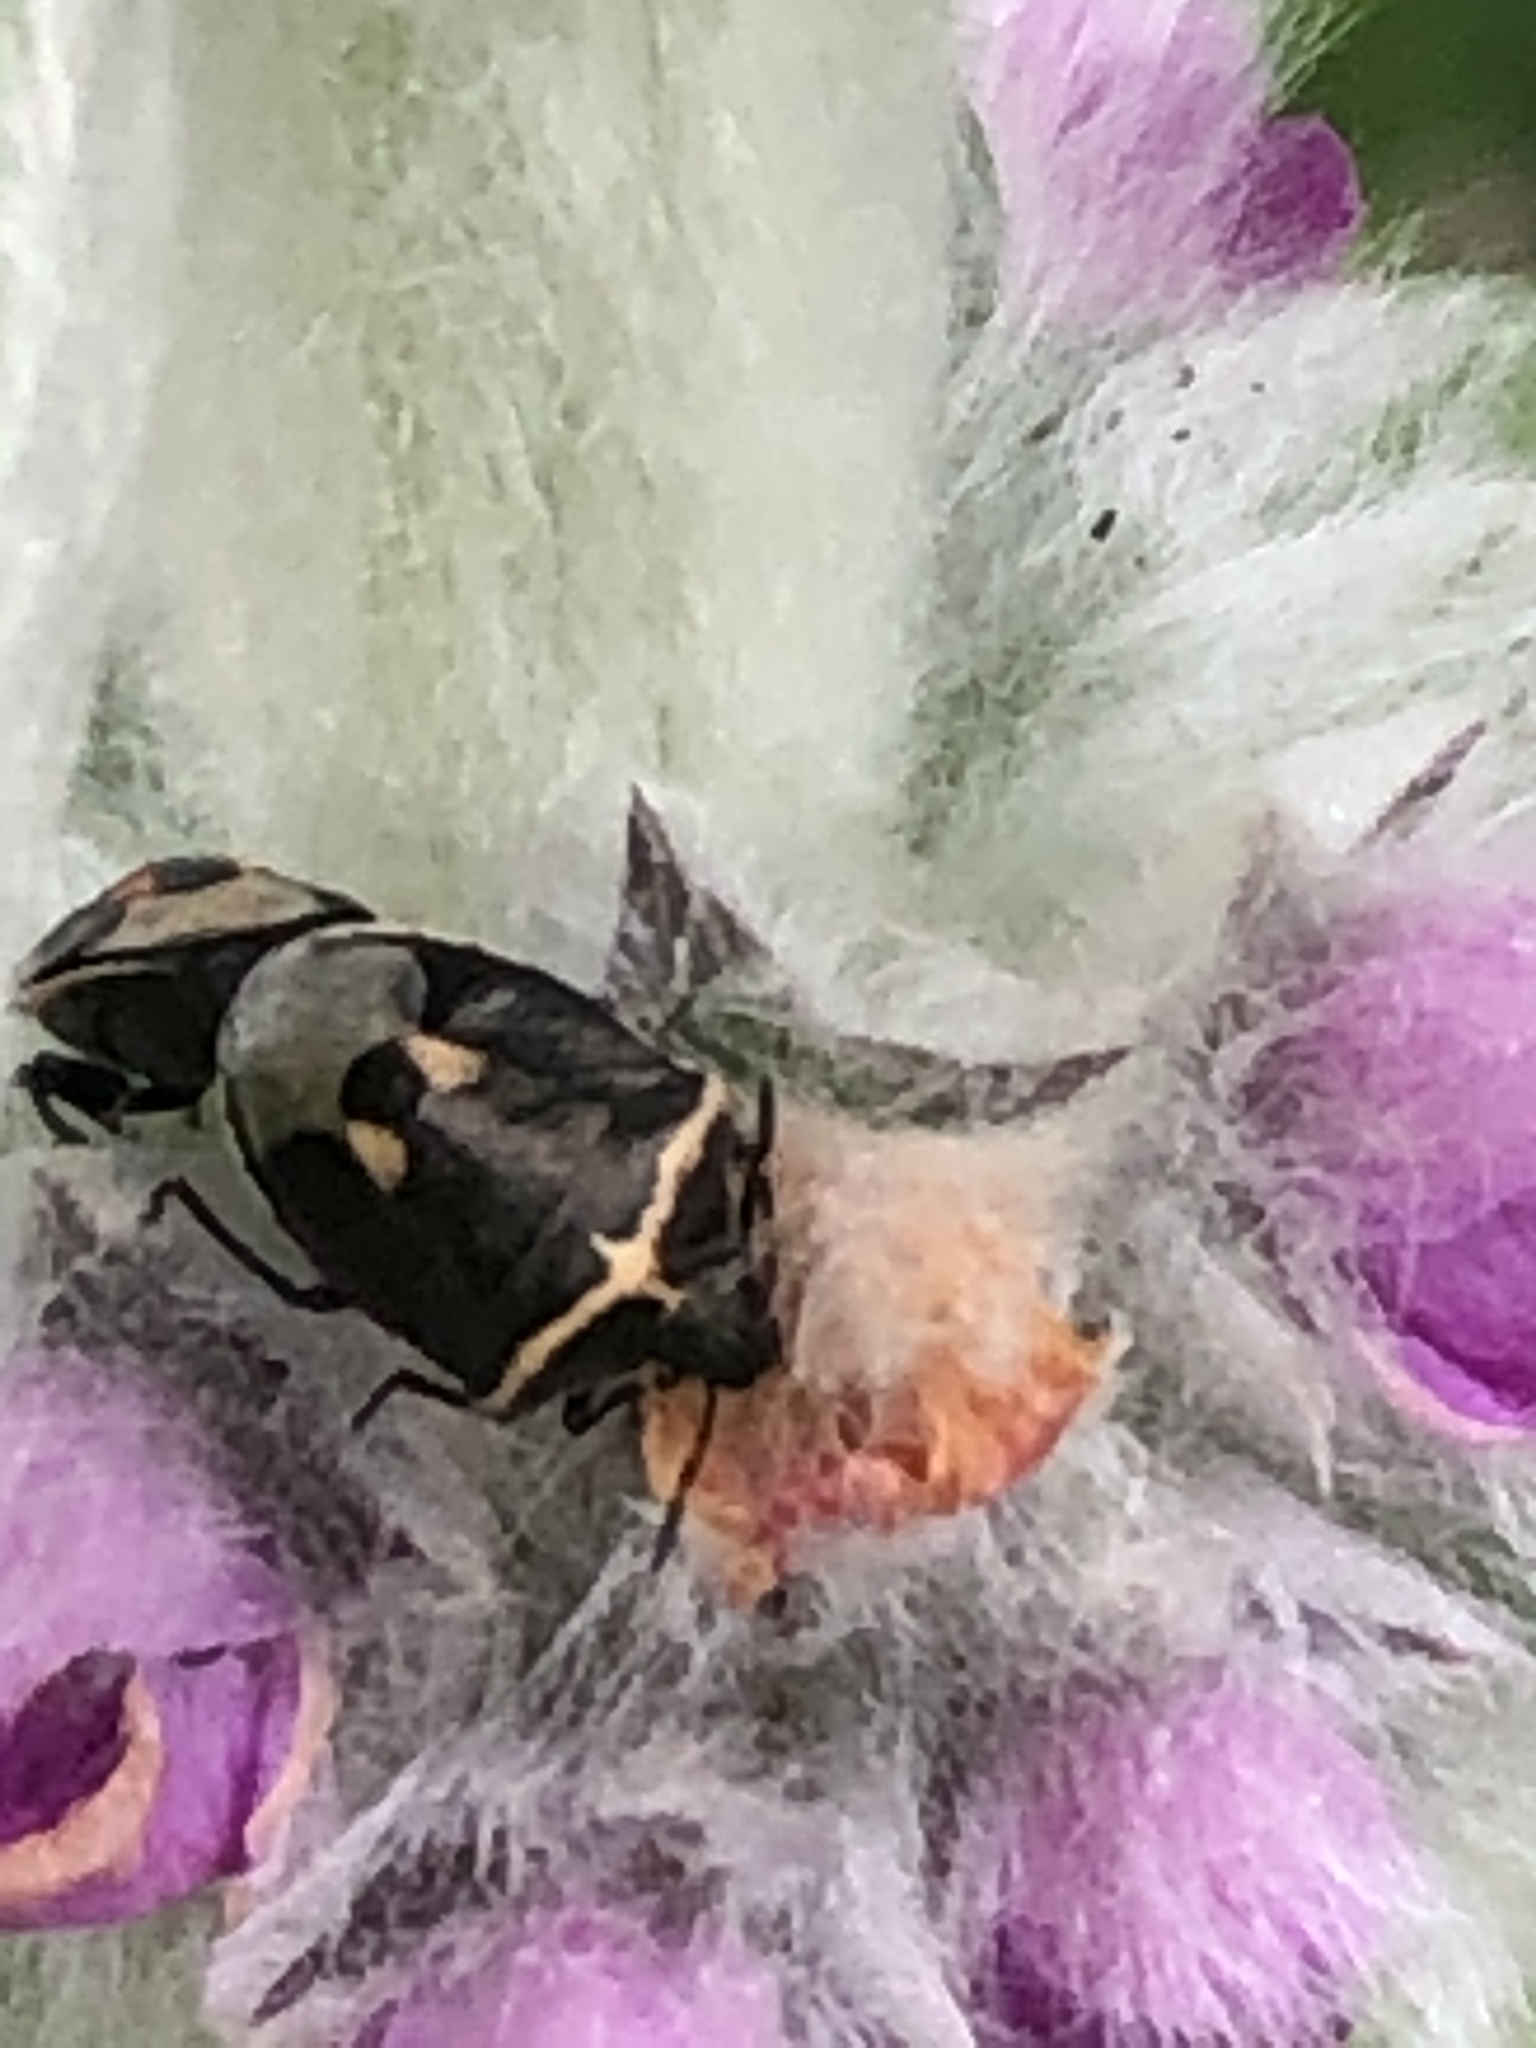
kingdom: Animalia
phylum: Arthropoda
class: Insecta
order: Hemiptera
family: Pentatomidae
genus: Cosmopepla
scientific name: Cosmopepla lintneriana
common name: Twice-stabbed stink bug
